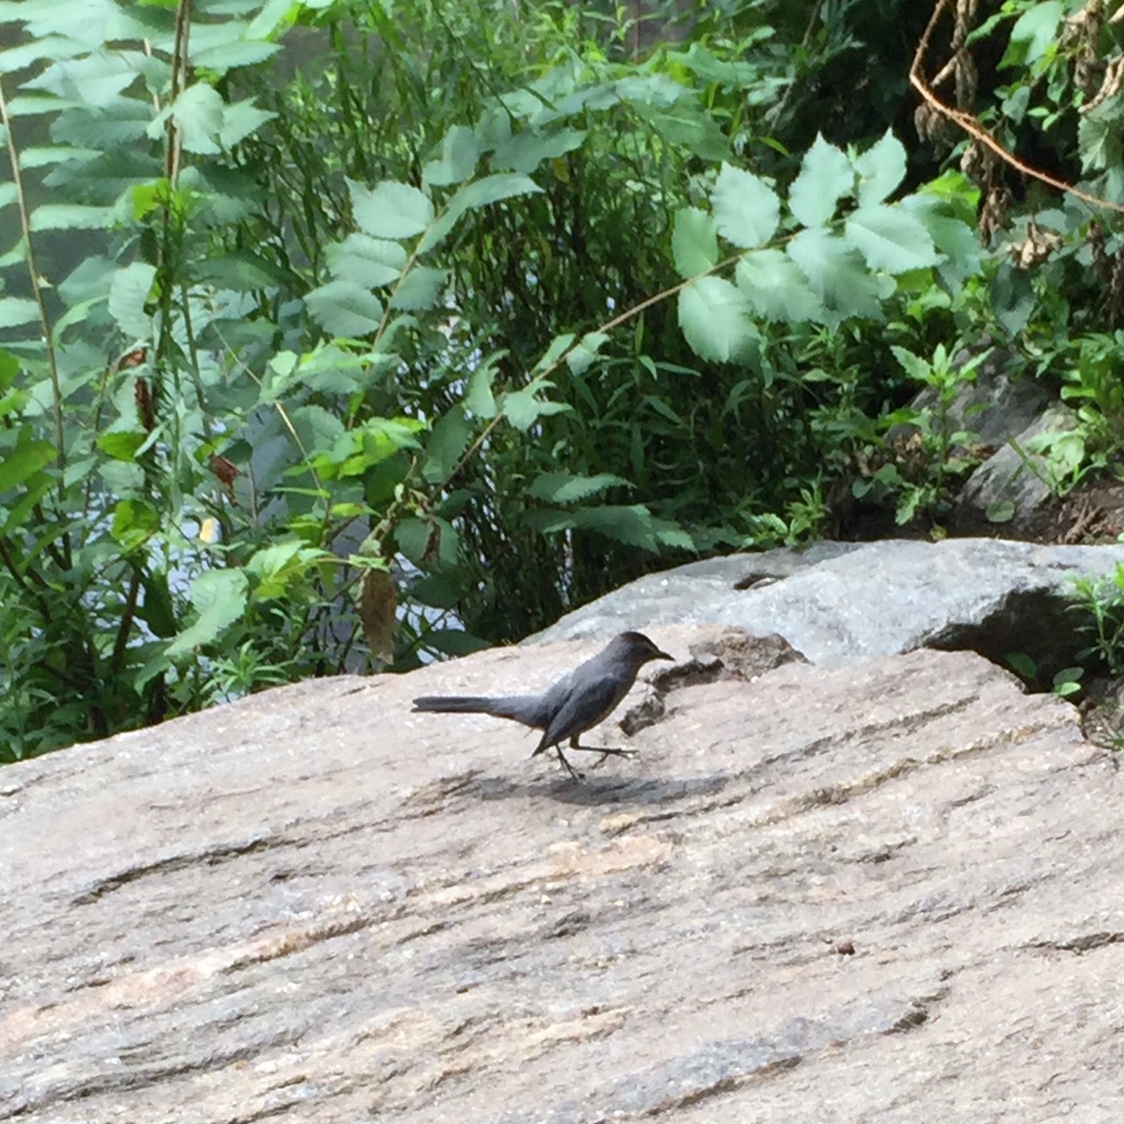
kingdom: Animalia
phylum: Chordata
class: Aves
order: Passeriformes
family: Mimidae
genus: Dumetella
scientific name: Dumetella carolinensis
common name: Gray catbird
